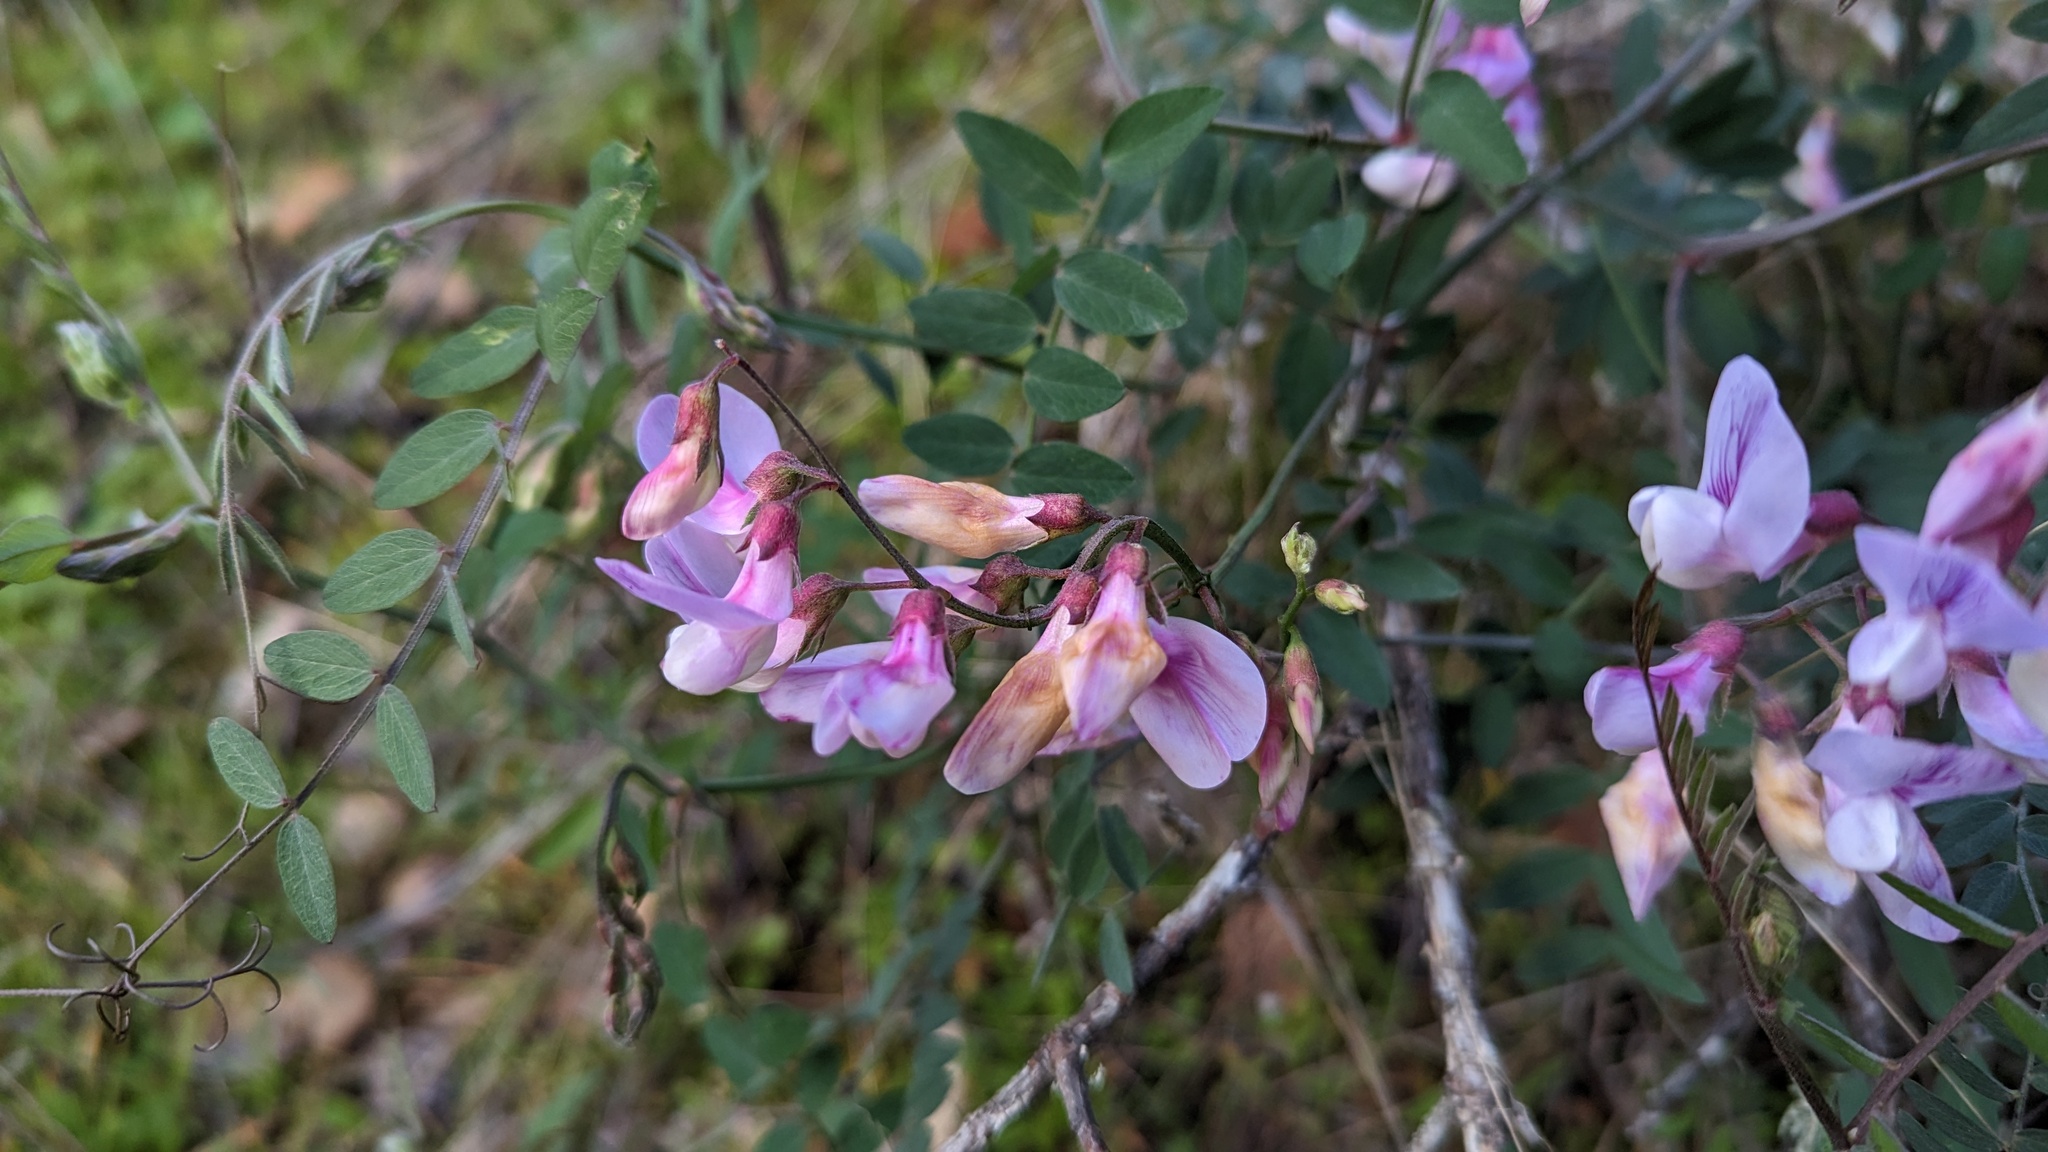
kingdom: Plantae
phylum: Tracheophyta
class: Magnoliopsida
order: Fabales
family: Fabaceae
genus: Lathyrus
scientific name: Lathyrus vestitus
